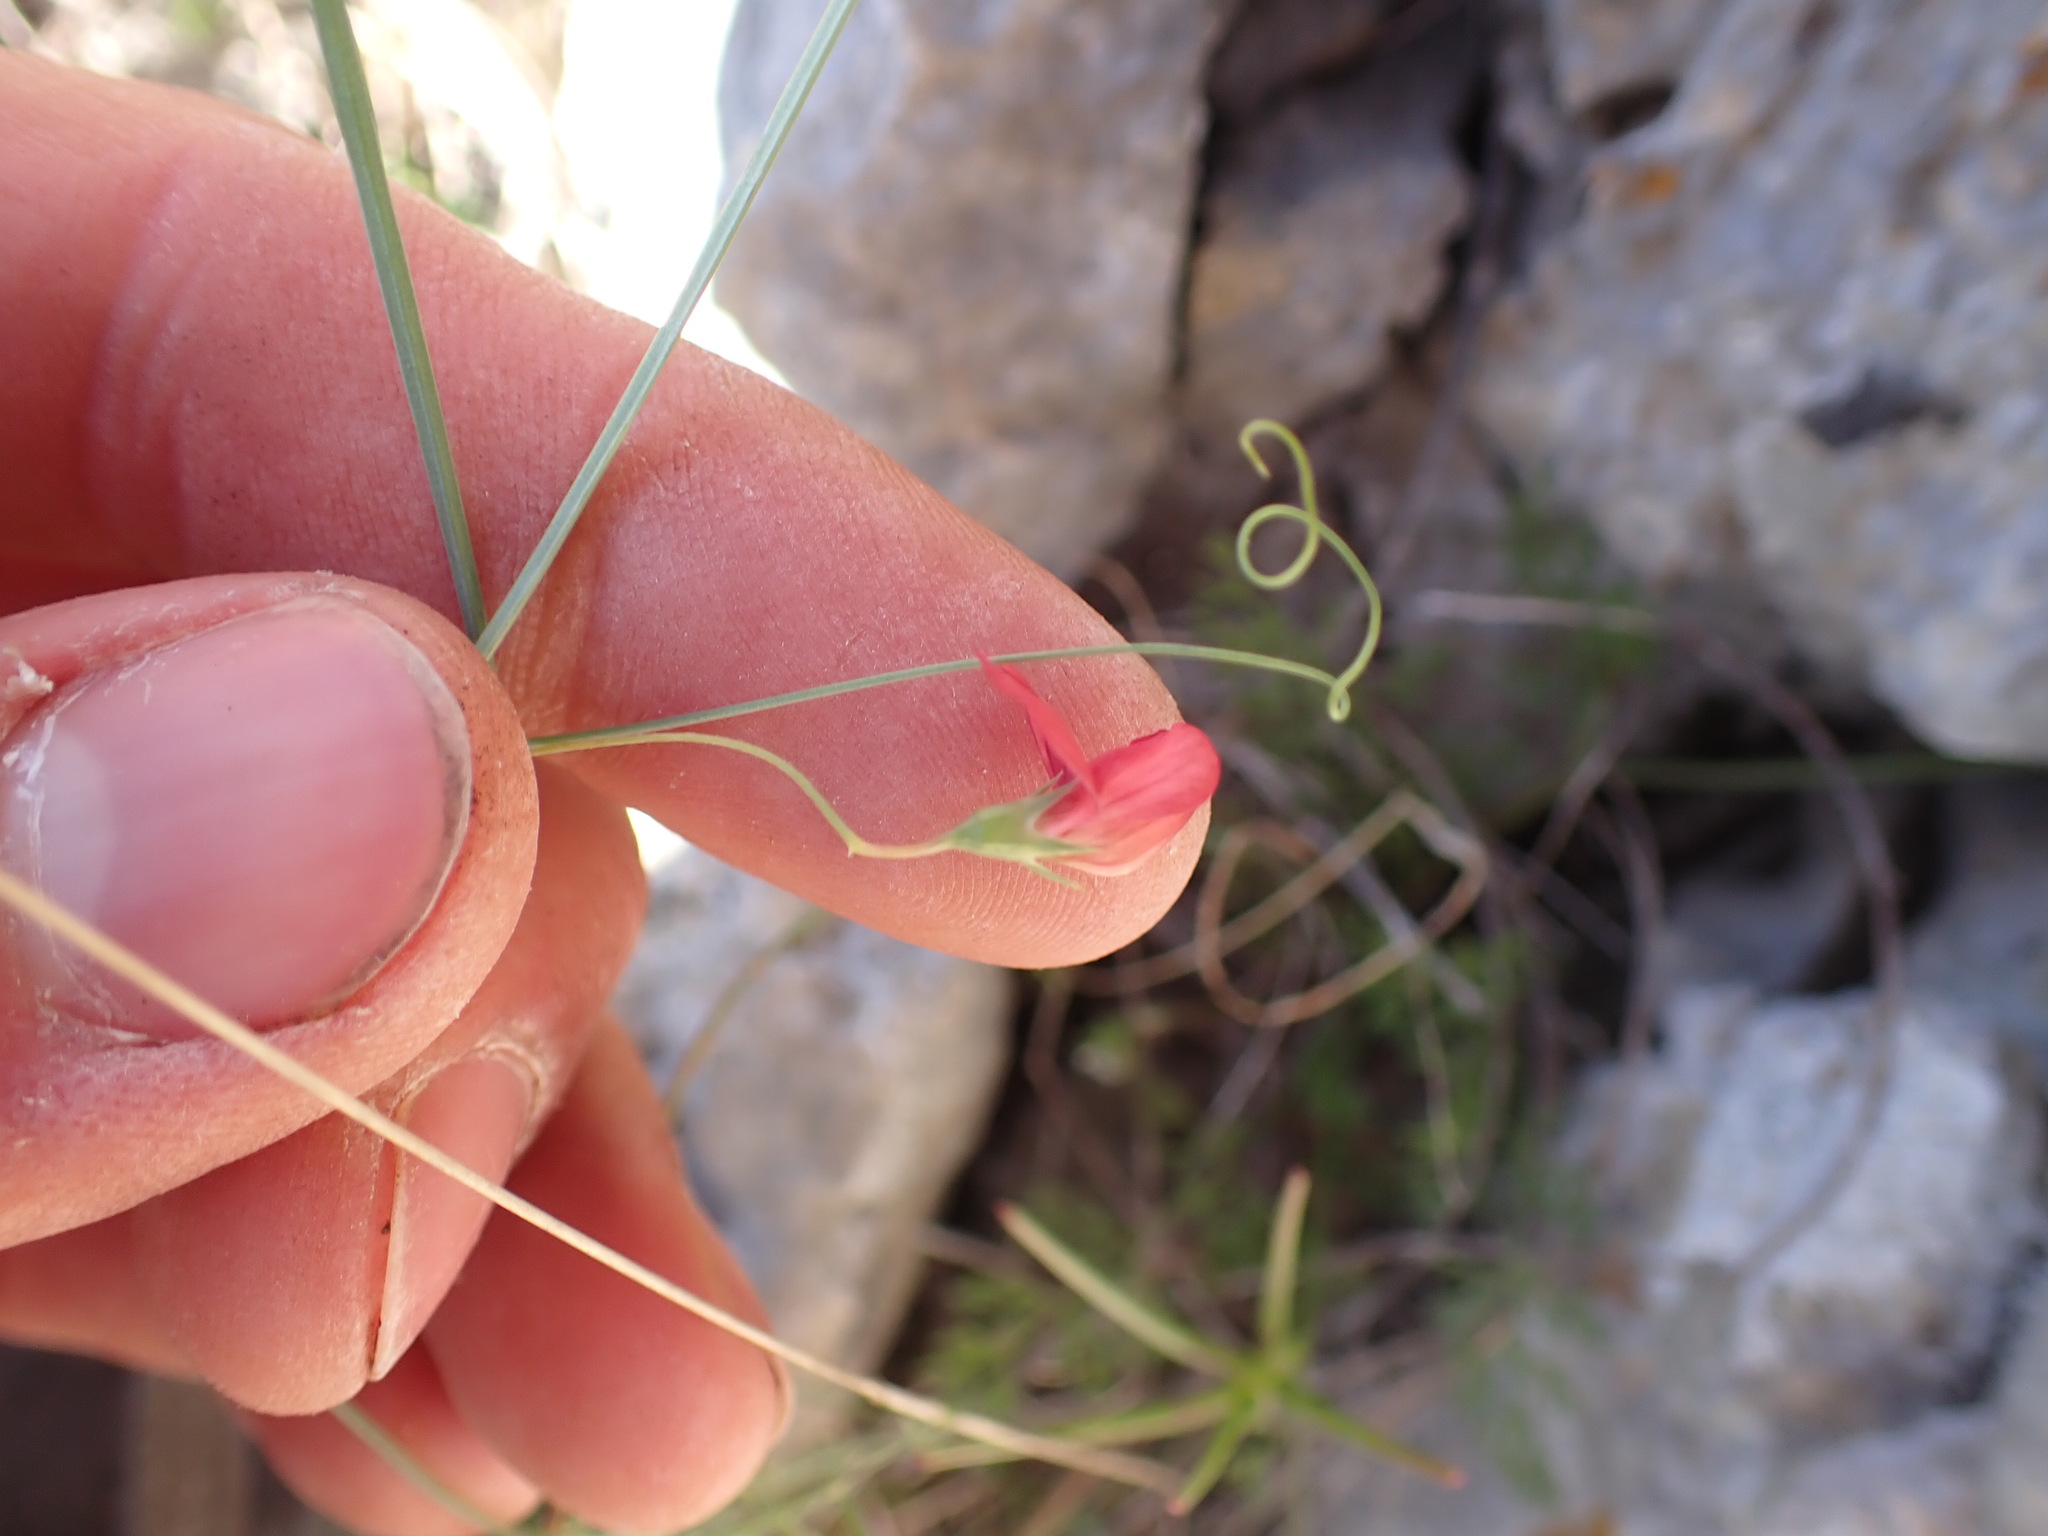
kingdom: Plantae
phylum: Tracheophyta
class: Magnoliopsida
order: Fabales
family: Fabaceae
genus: Lathyrus
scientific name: Lathyrus setifolius
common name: Brown vetchling
